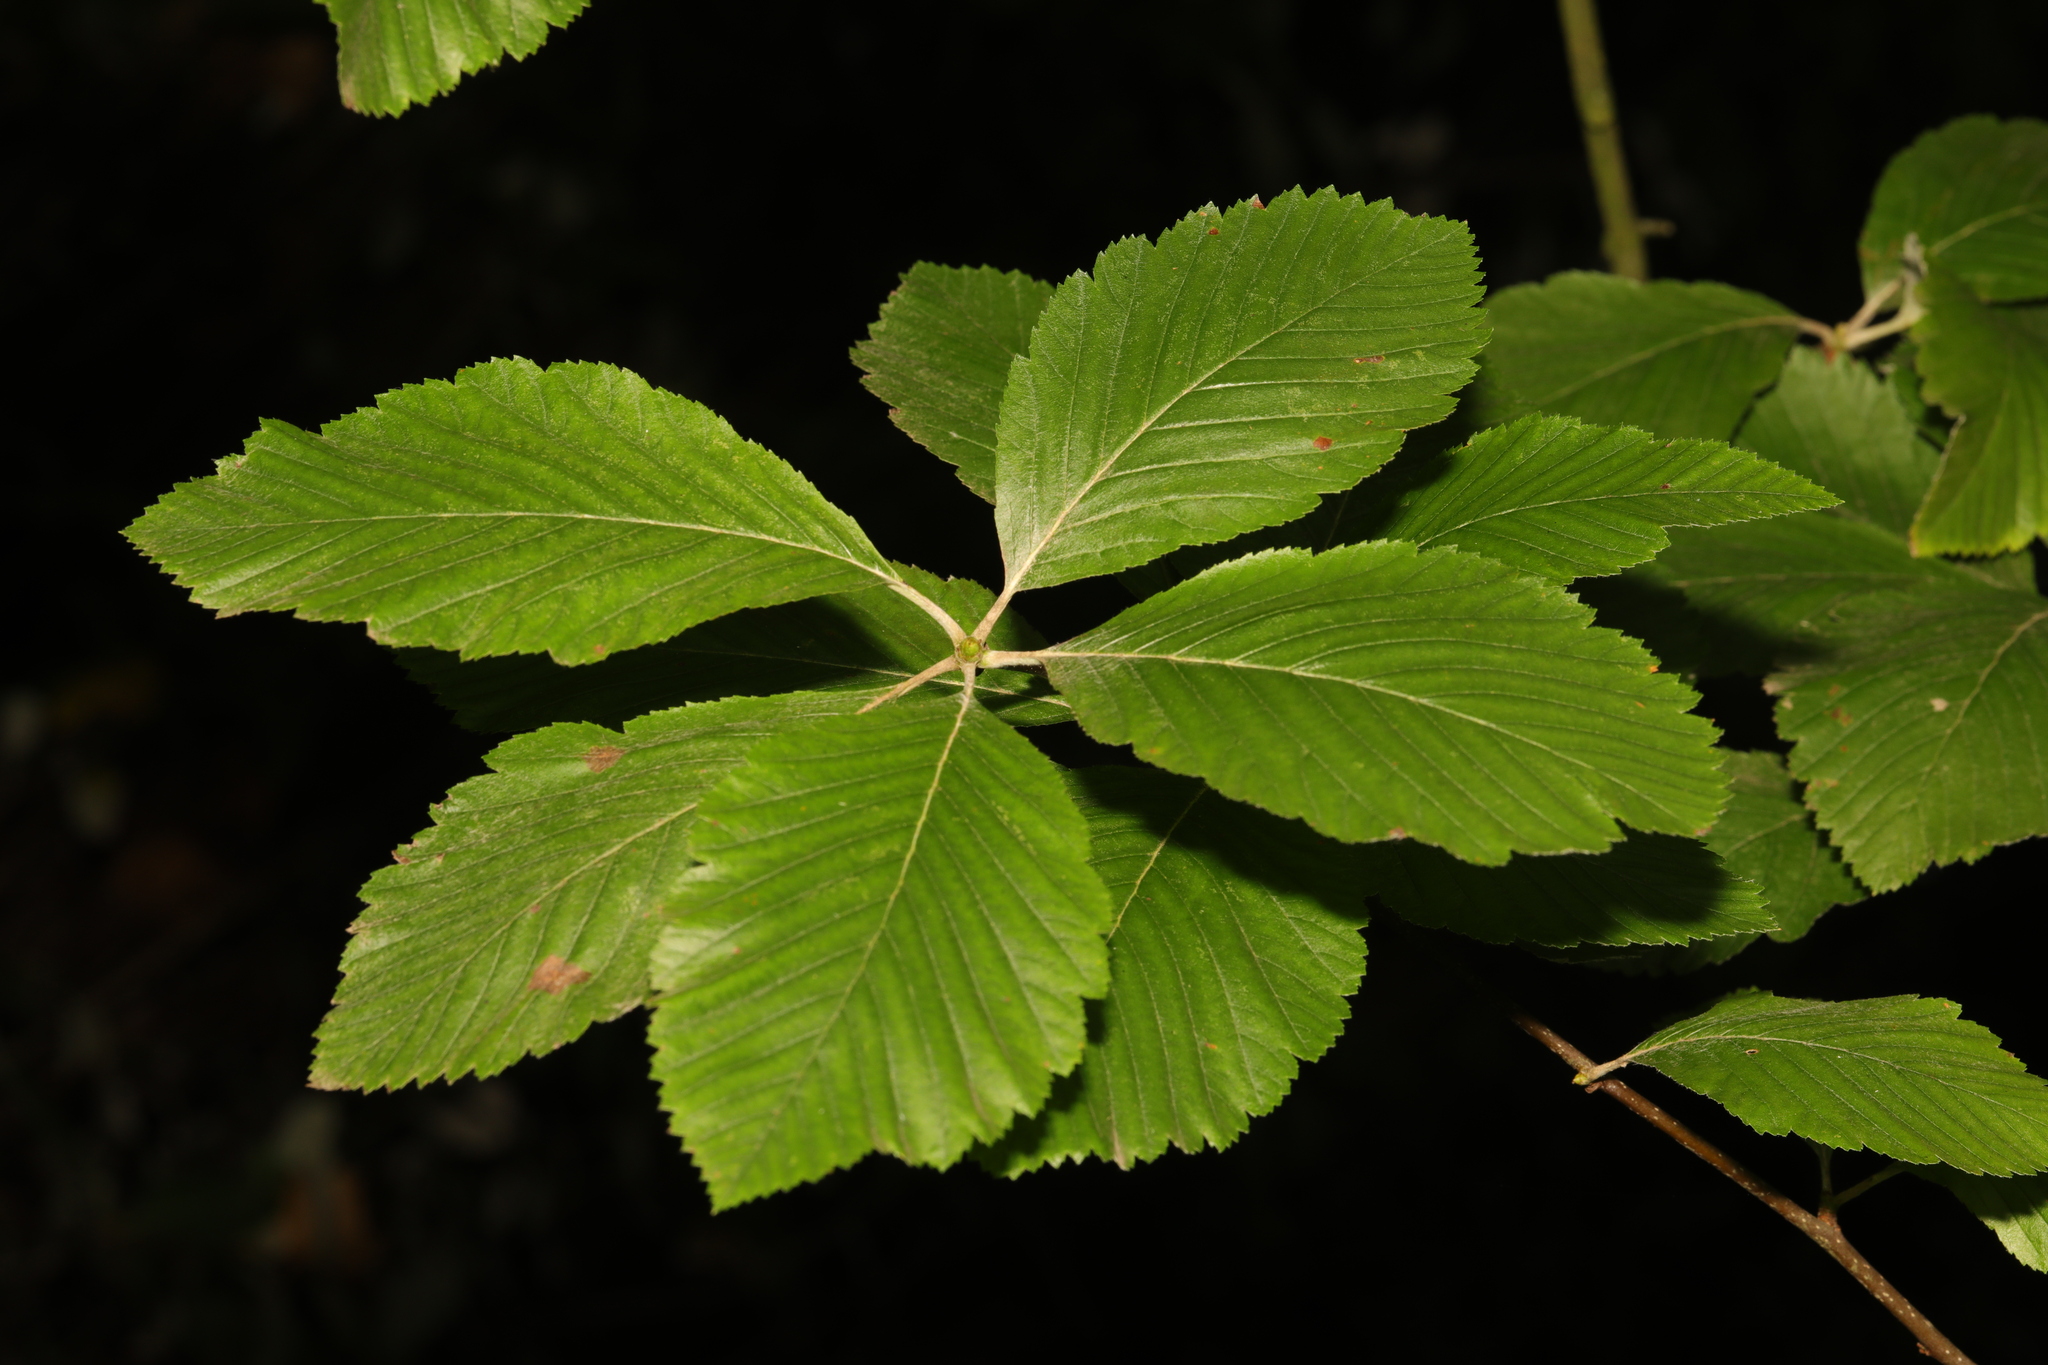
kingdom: Plantae
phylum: Tracheophyta
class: Magnoliopsida
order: Rosales
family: Rosaceae
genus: Aria
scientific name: Aria edulis
